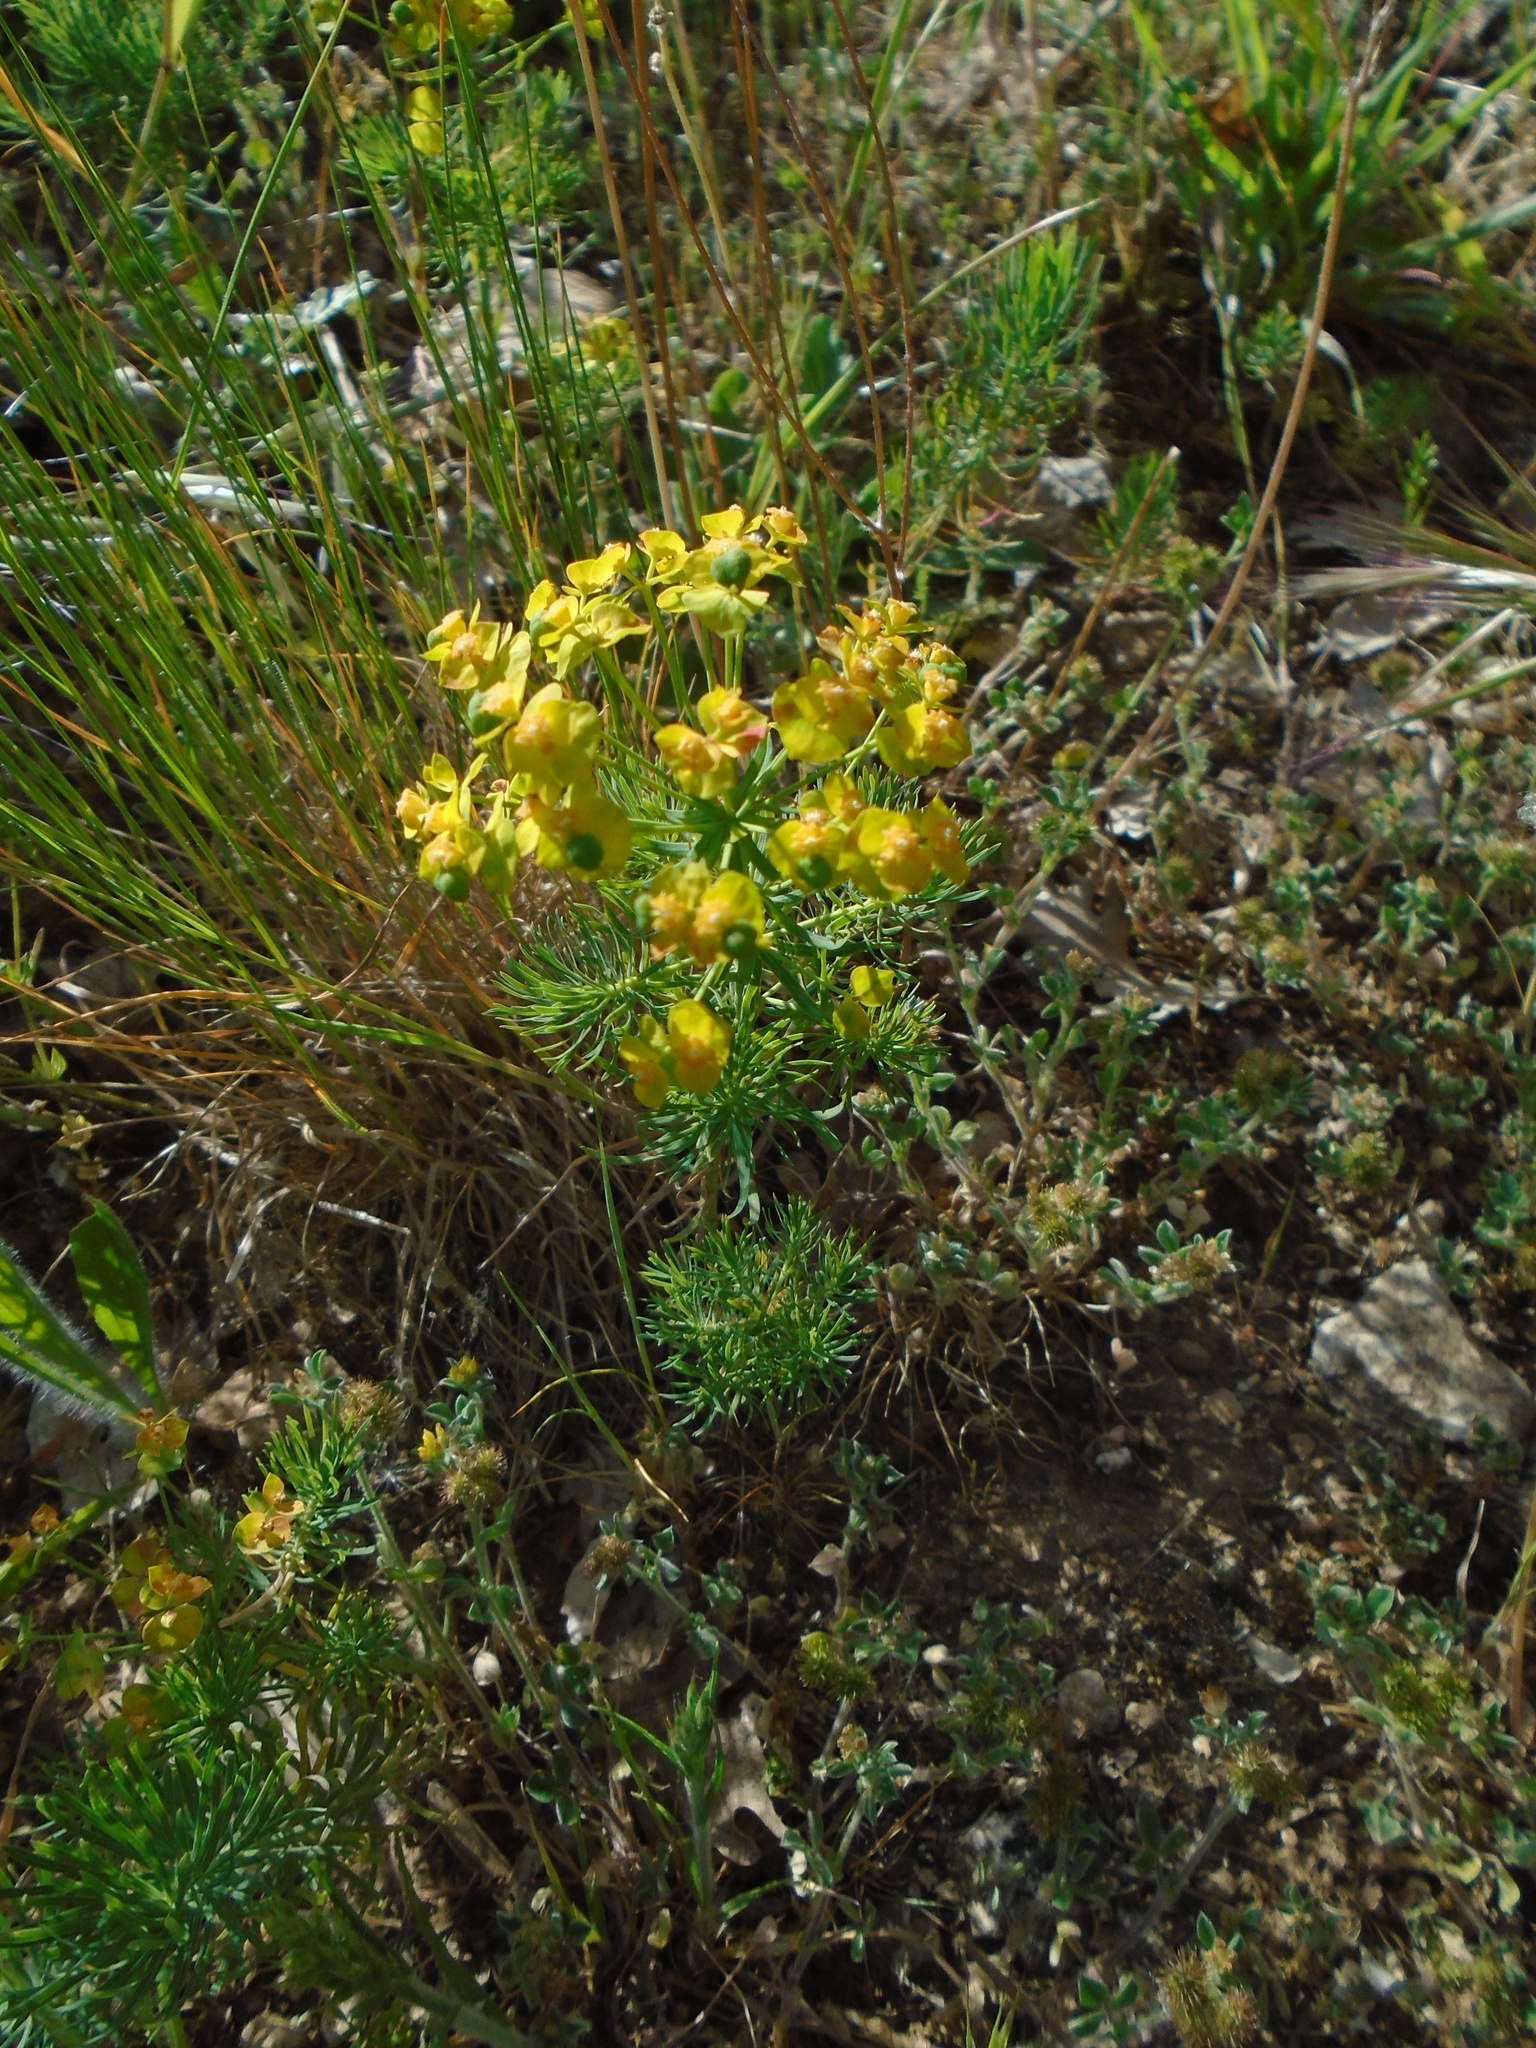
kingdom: Plantae
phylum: Tracheophyta
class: Magnoliopsida
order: Malpighiales
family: Euphorbiaceae
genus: Euphorbia
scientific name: Euphorbia cyparissias
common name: Cypress spurge
